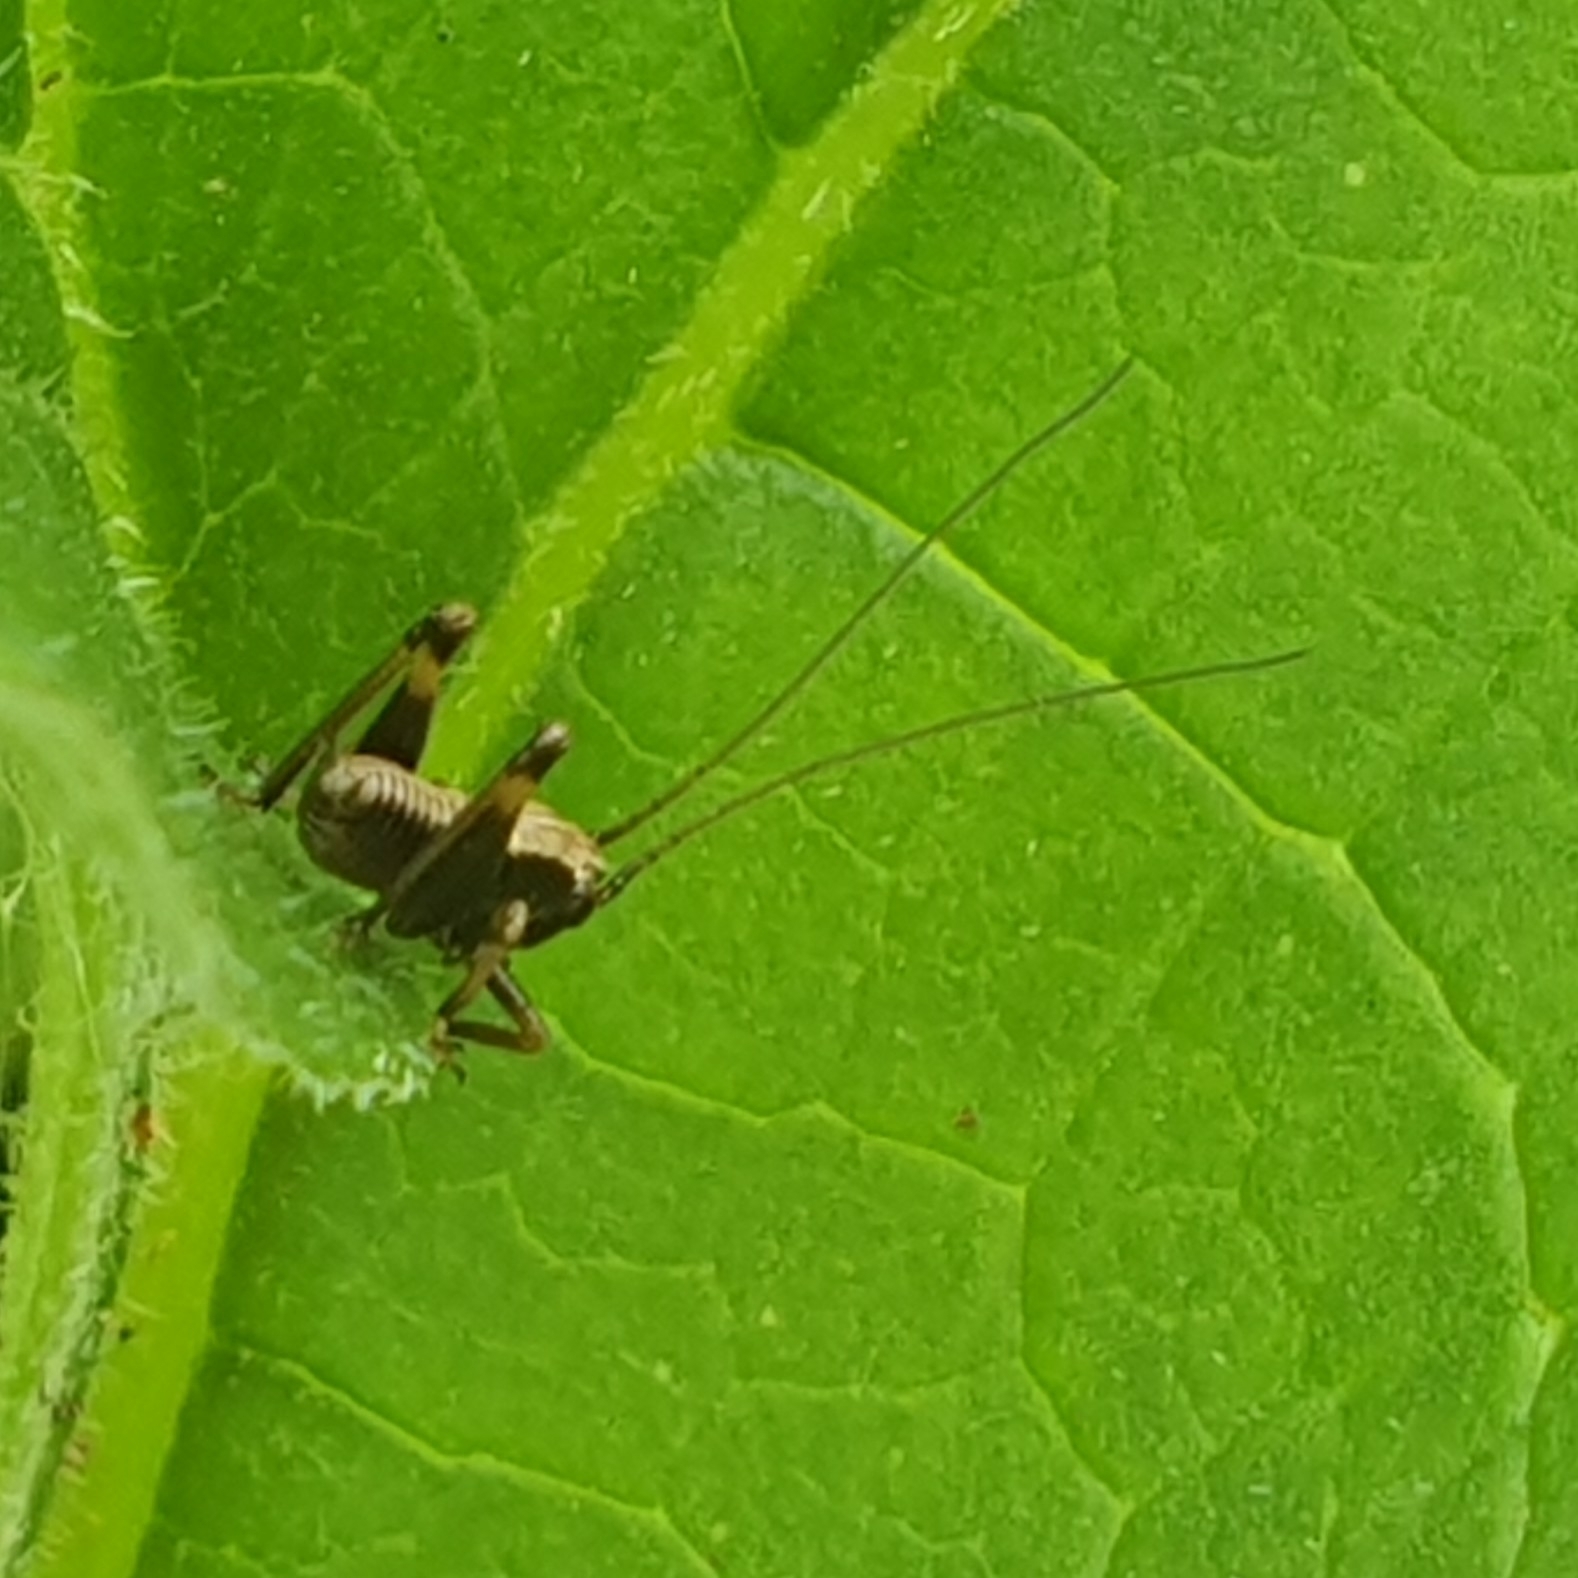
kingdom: Animalia
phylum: Arthropoda
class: Insecta
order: Orthoptera
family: Tettigoniidae
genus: Pholidoptera
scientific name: Pholidoptera griseoaptera
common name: Dark bush-cricket
